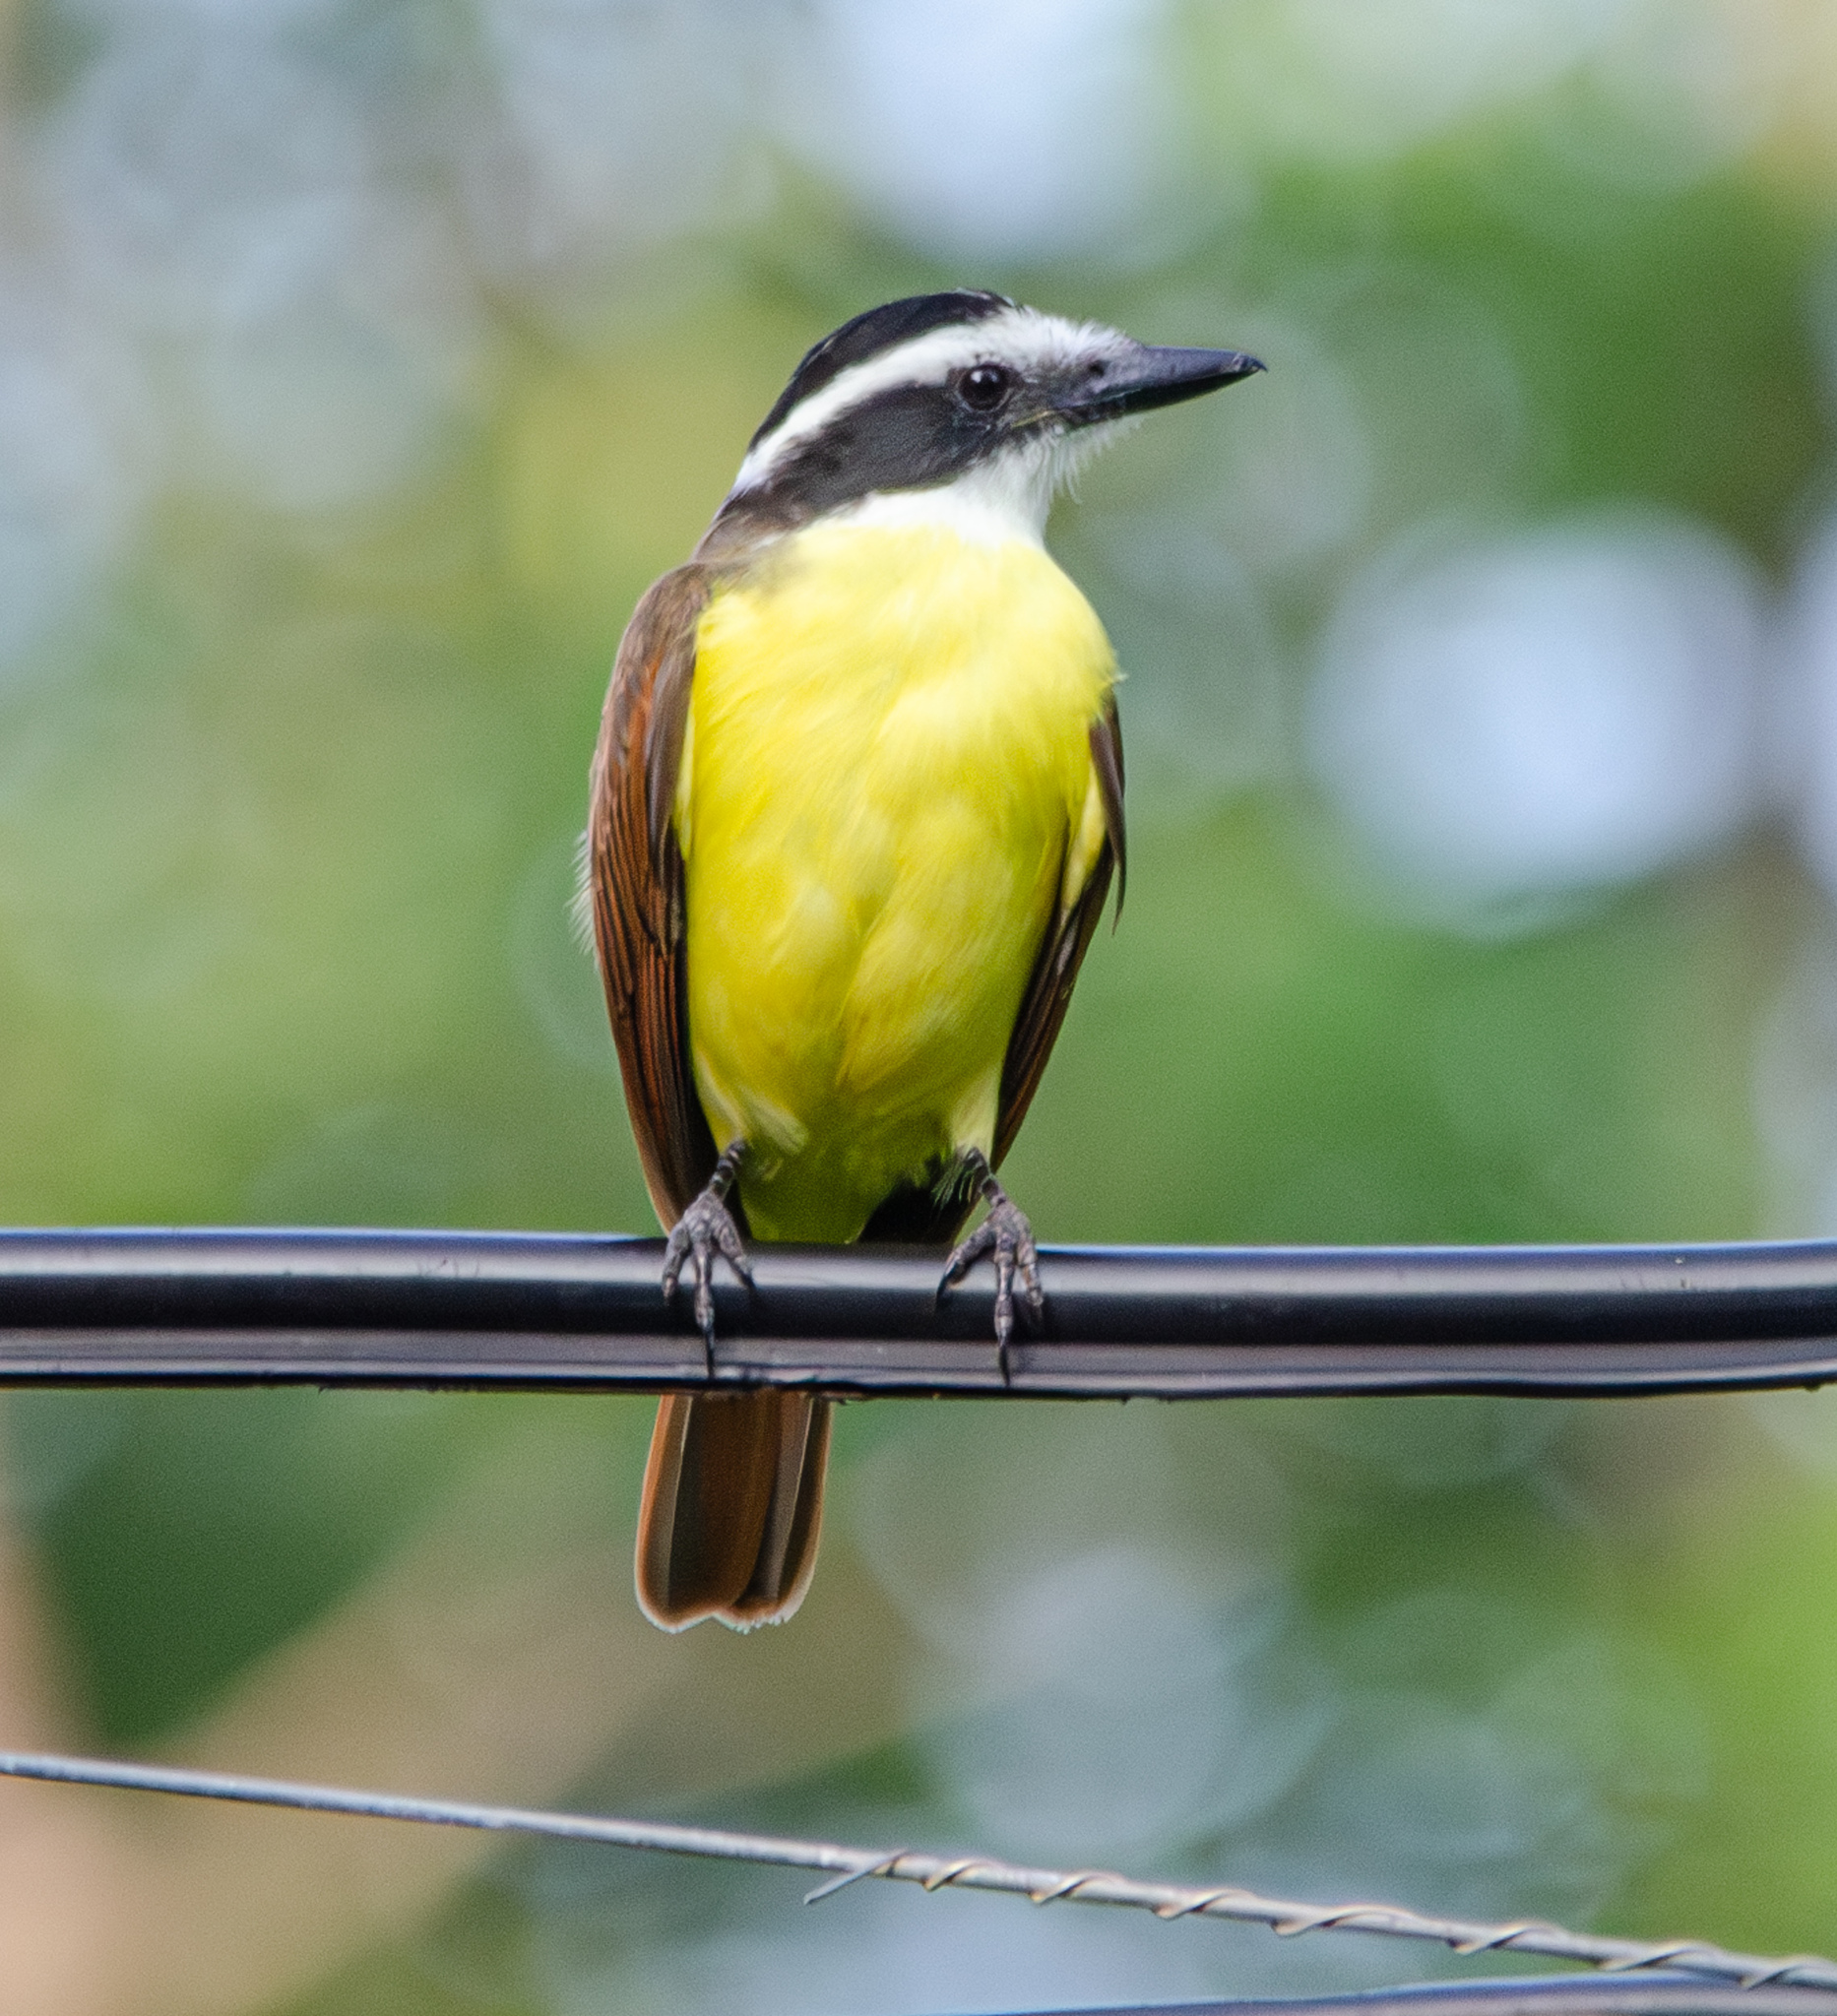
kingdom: Animalia
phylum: Chordata
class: Aves
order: Passeriformes
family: Tyrannidae
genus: Pitangus
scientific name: Pitangus sulphuratus
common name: Great kiskadee
